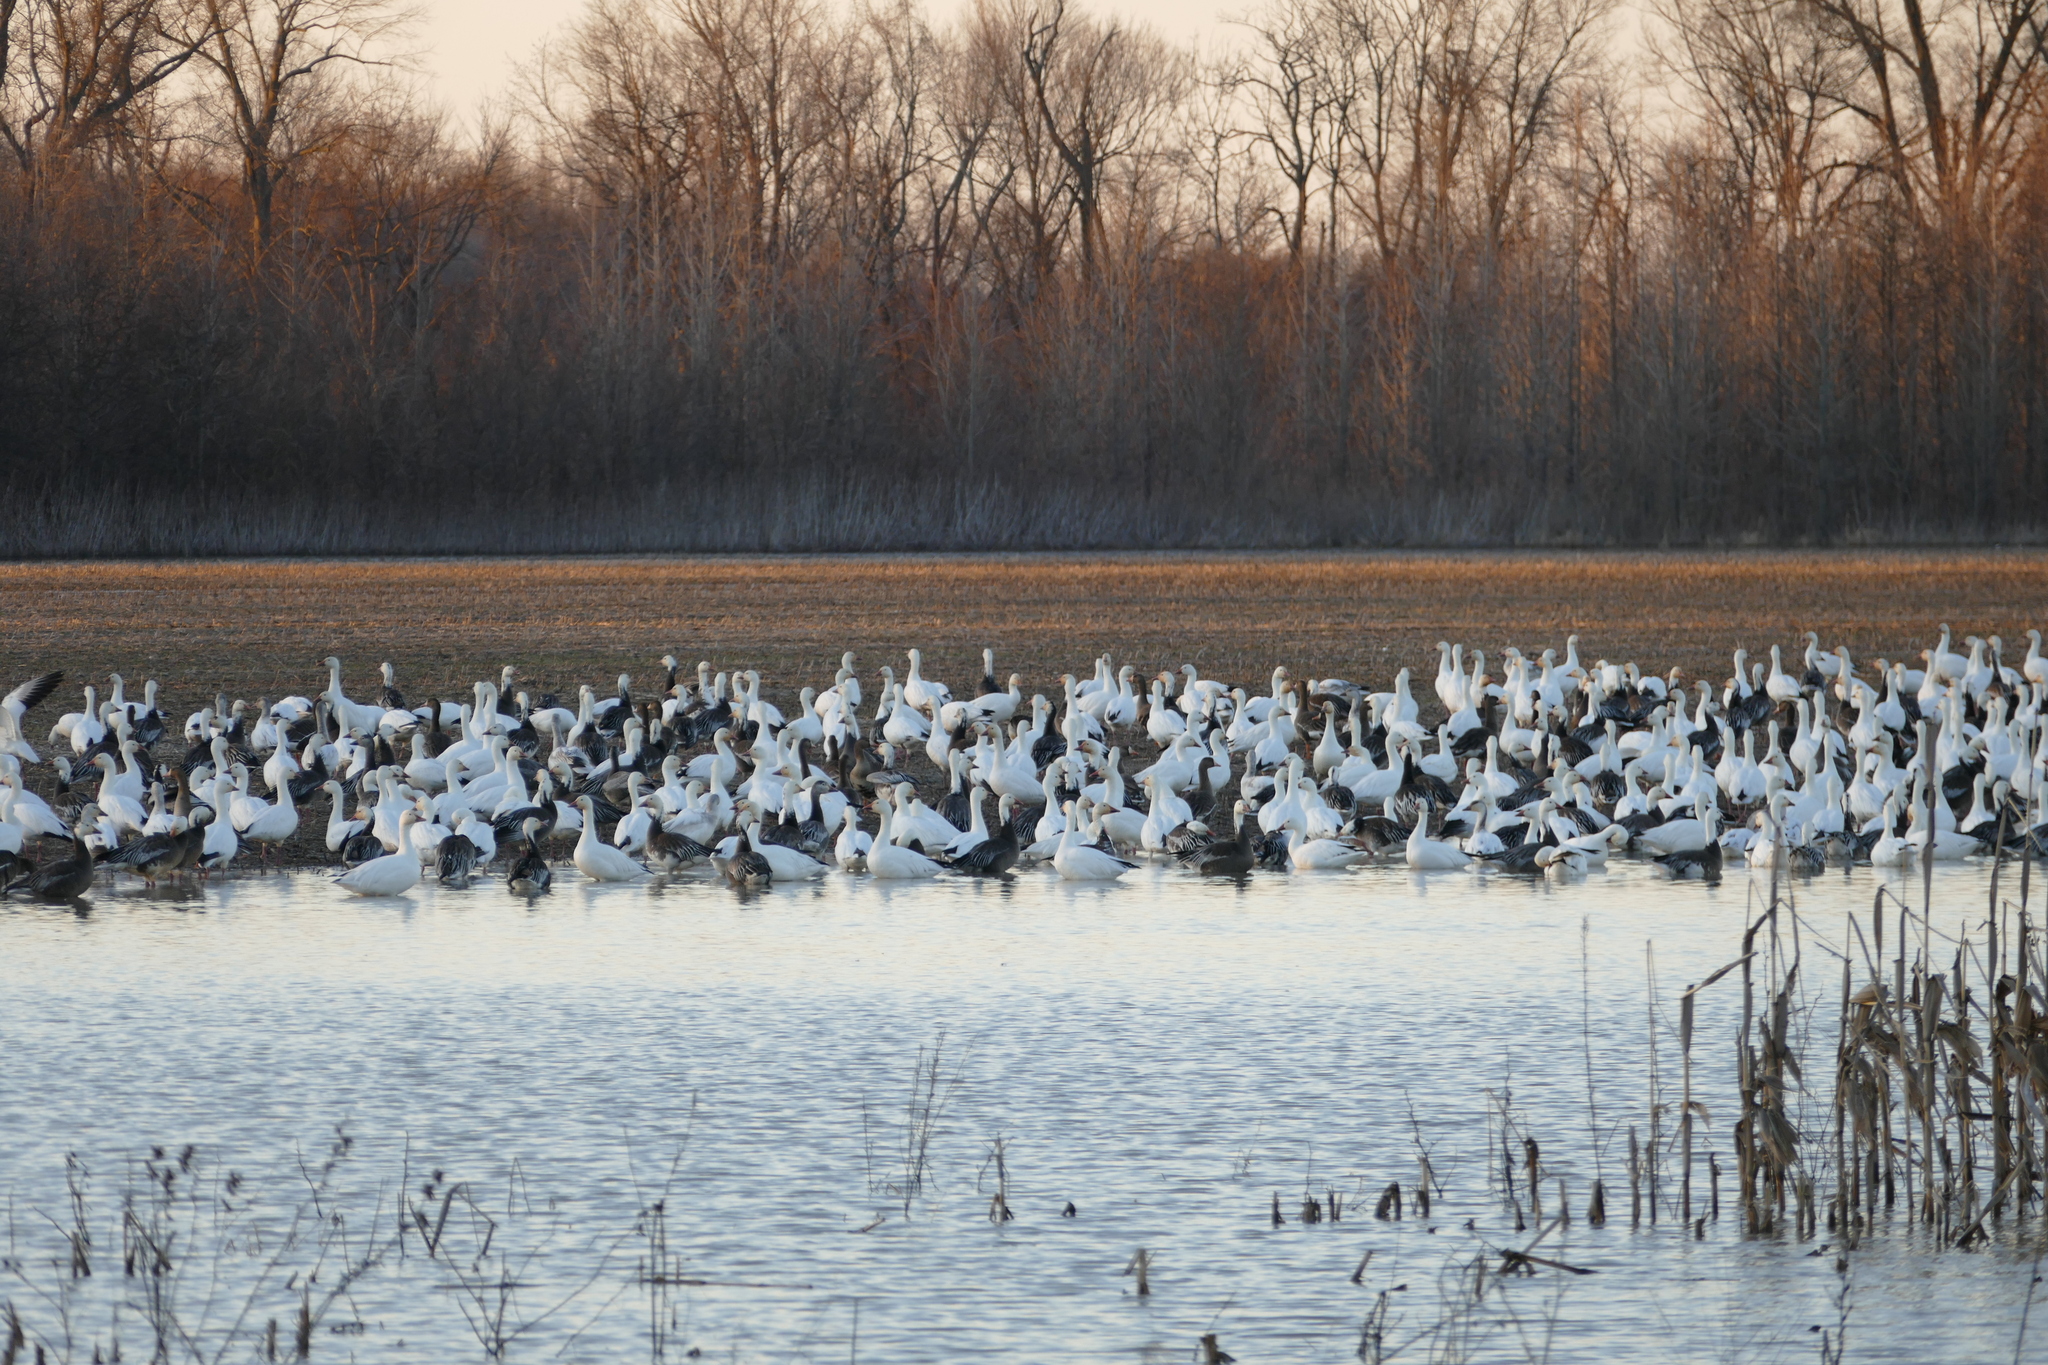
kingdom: Animalia
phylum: Chordata
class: Aves
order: Anseriformes
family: Anatidae
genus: Anser
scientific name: Anser caerulescens
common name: Snow goose
